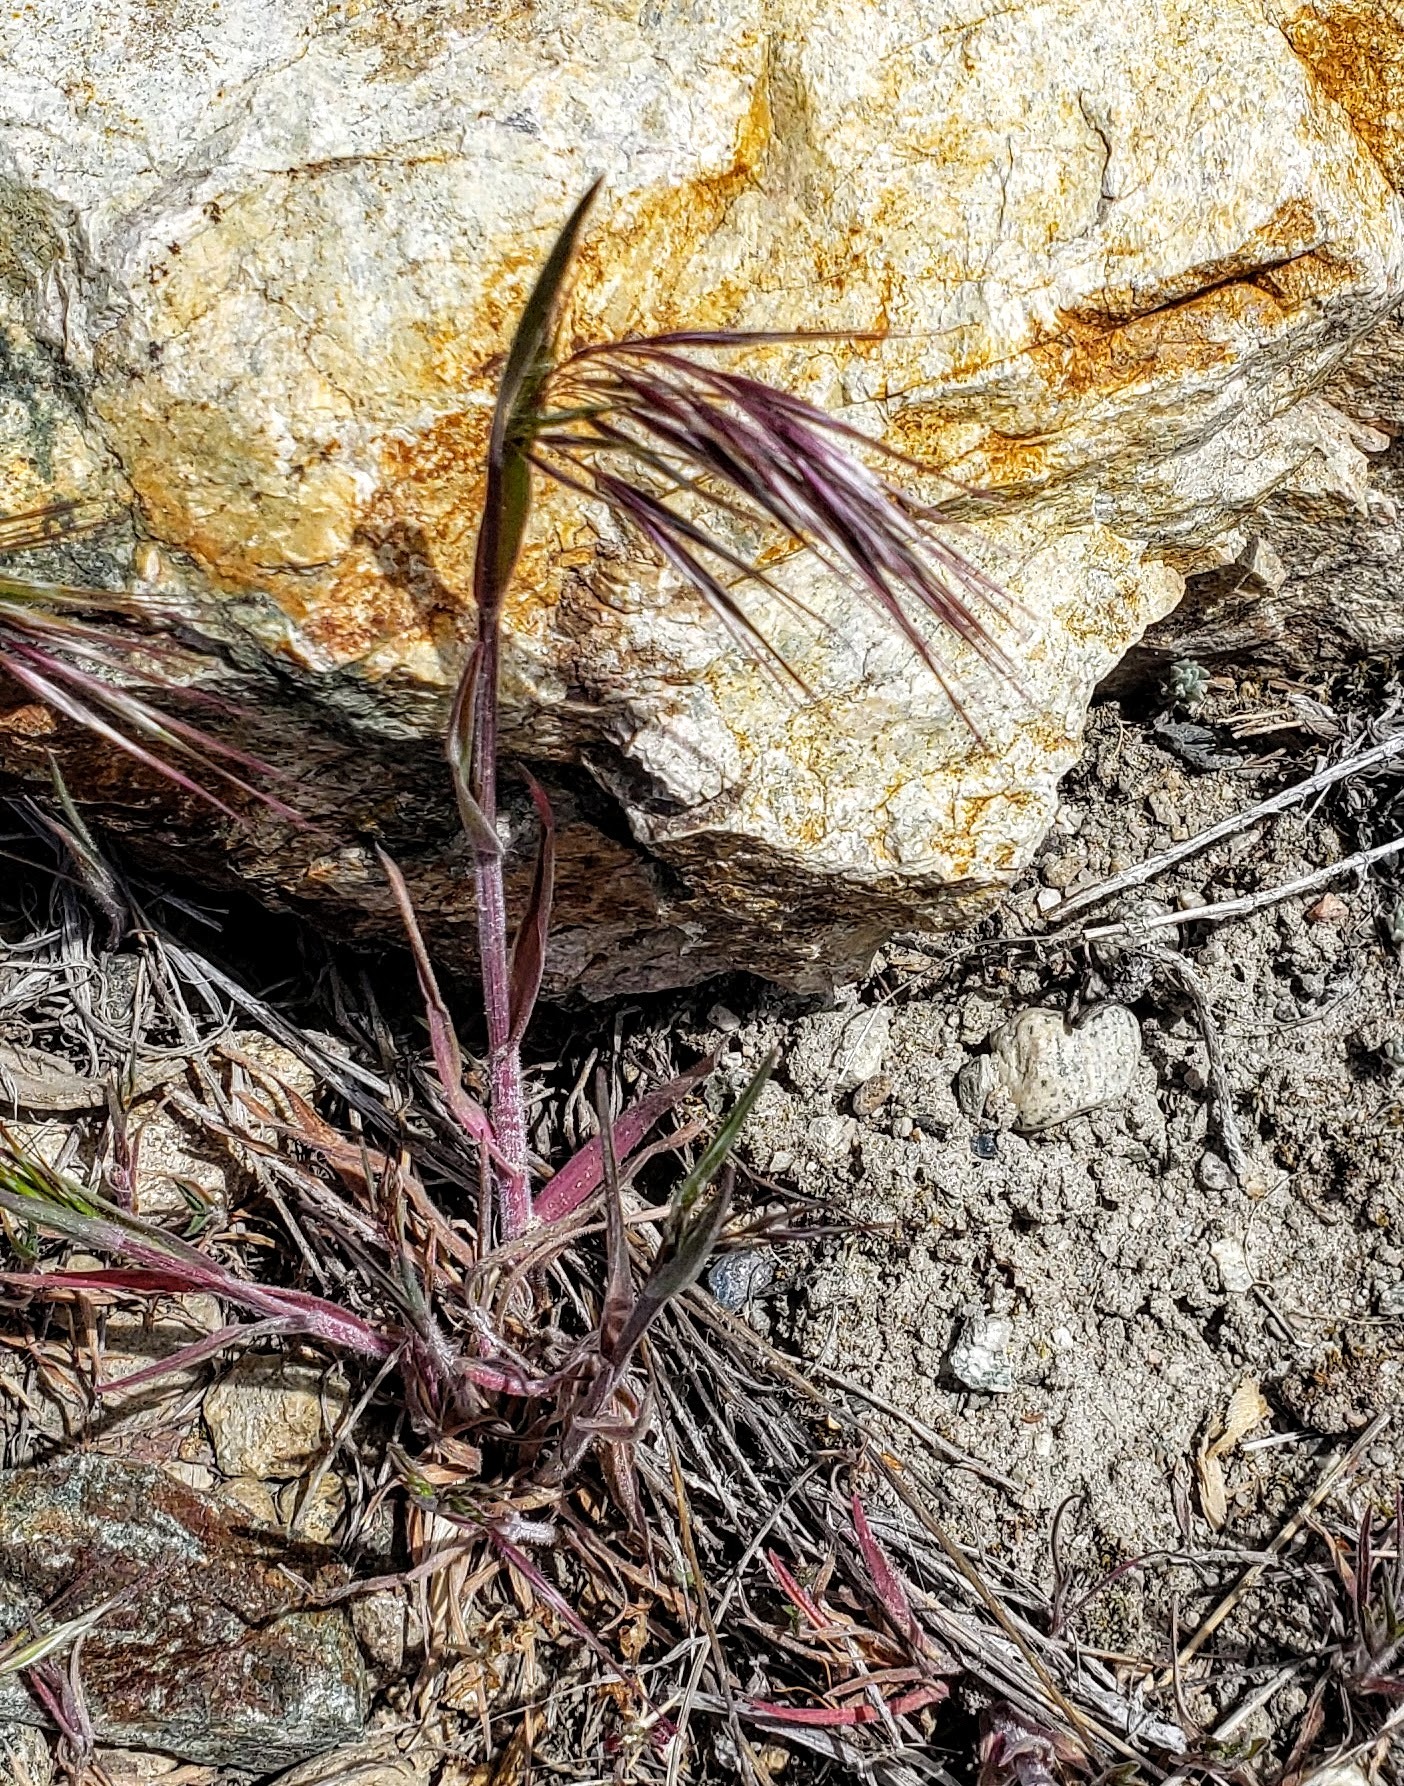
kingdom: Plantae
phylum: Tracheophyta
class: Liliopsida
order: Poales
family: Poaceae
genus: Bromus
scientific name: Bromus tectorum
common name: Cheatgrass
